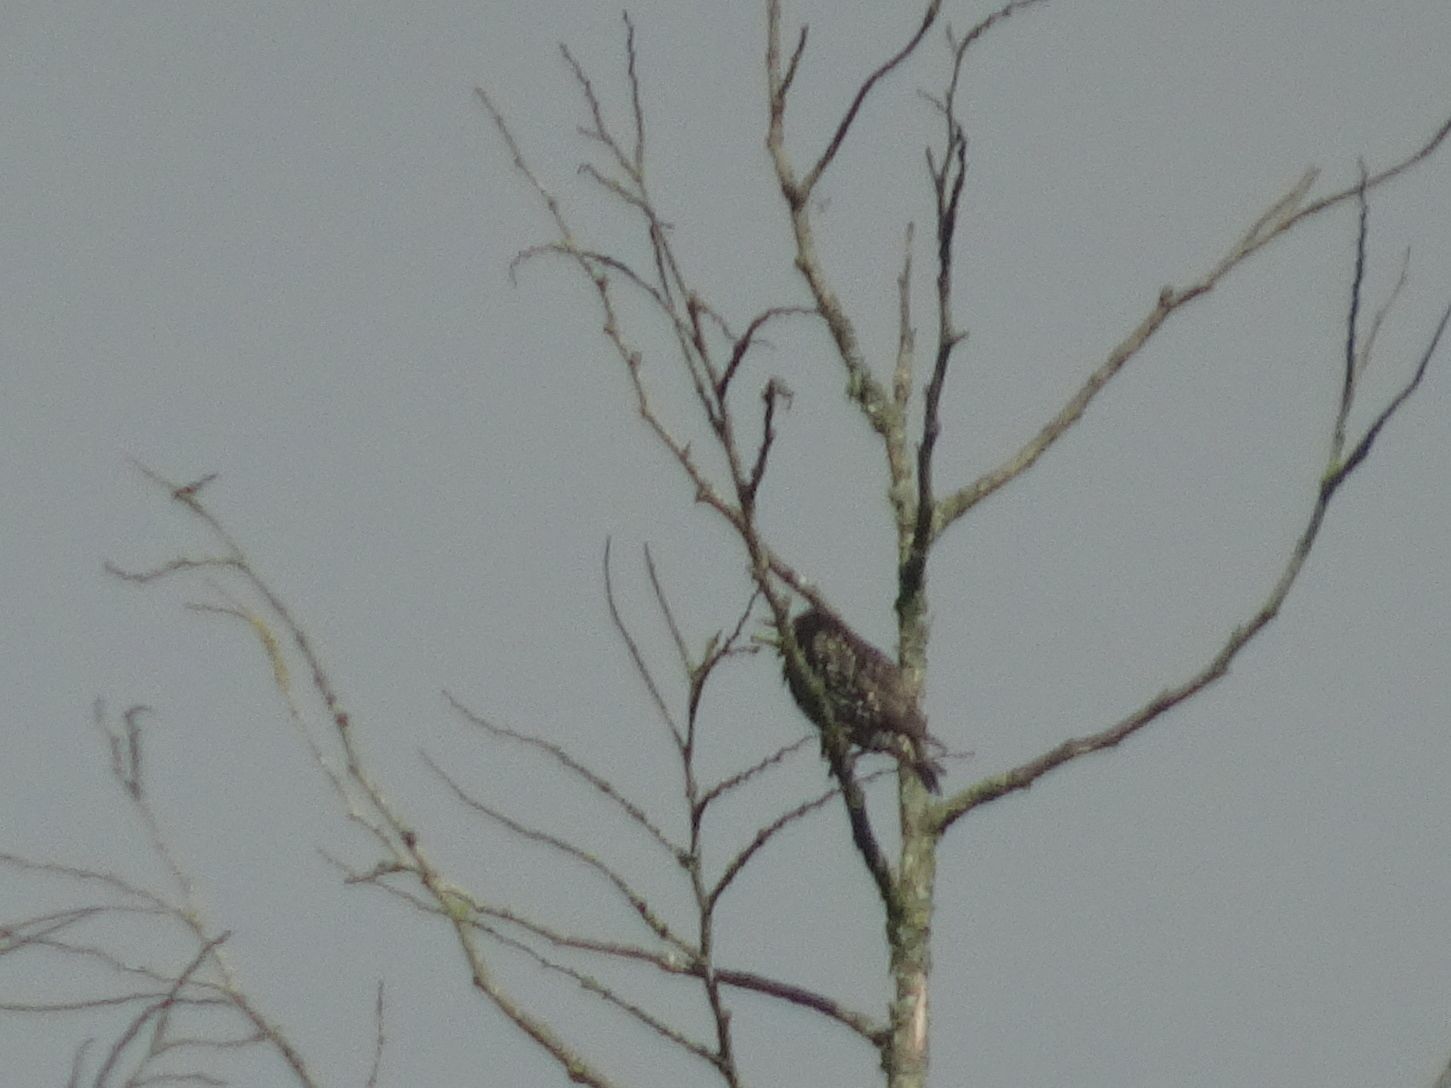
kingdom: Animalia
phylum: Chordata
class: Aves
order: Passeriformes
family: Sturnidae
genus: Sturnus
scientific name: Sturnus vulgaris
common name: Common starling
